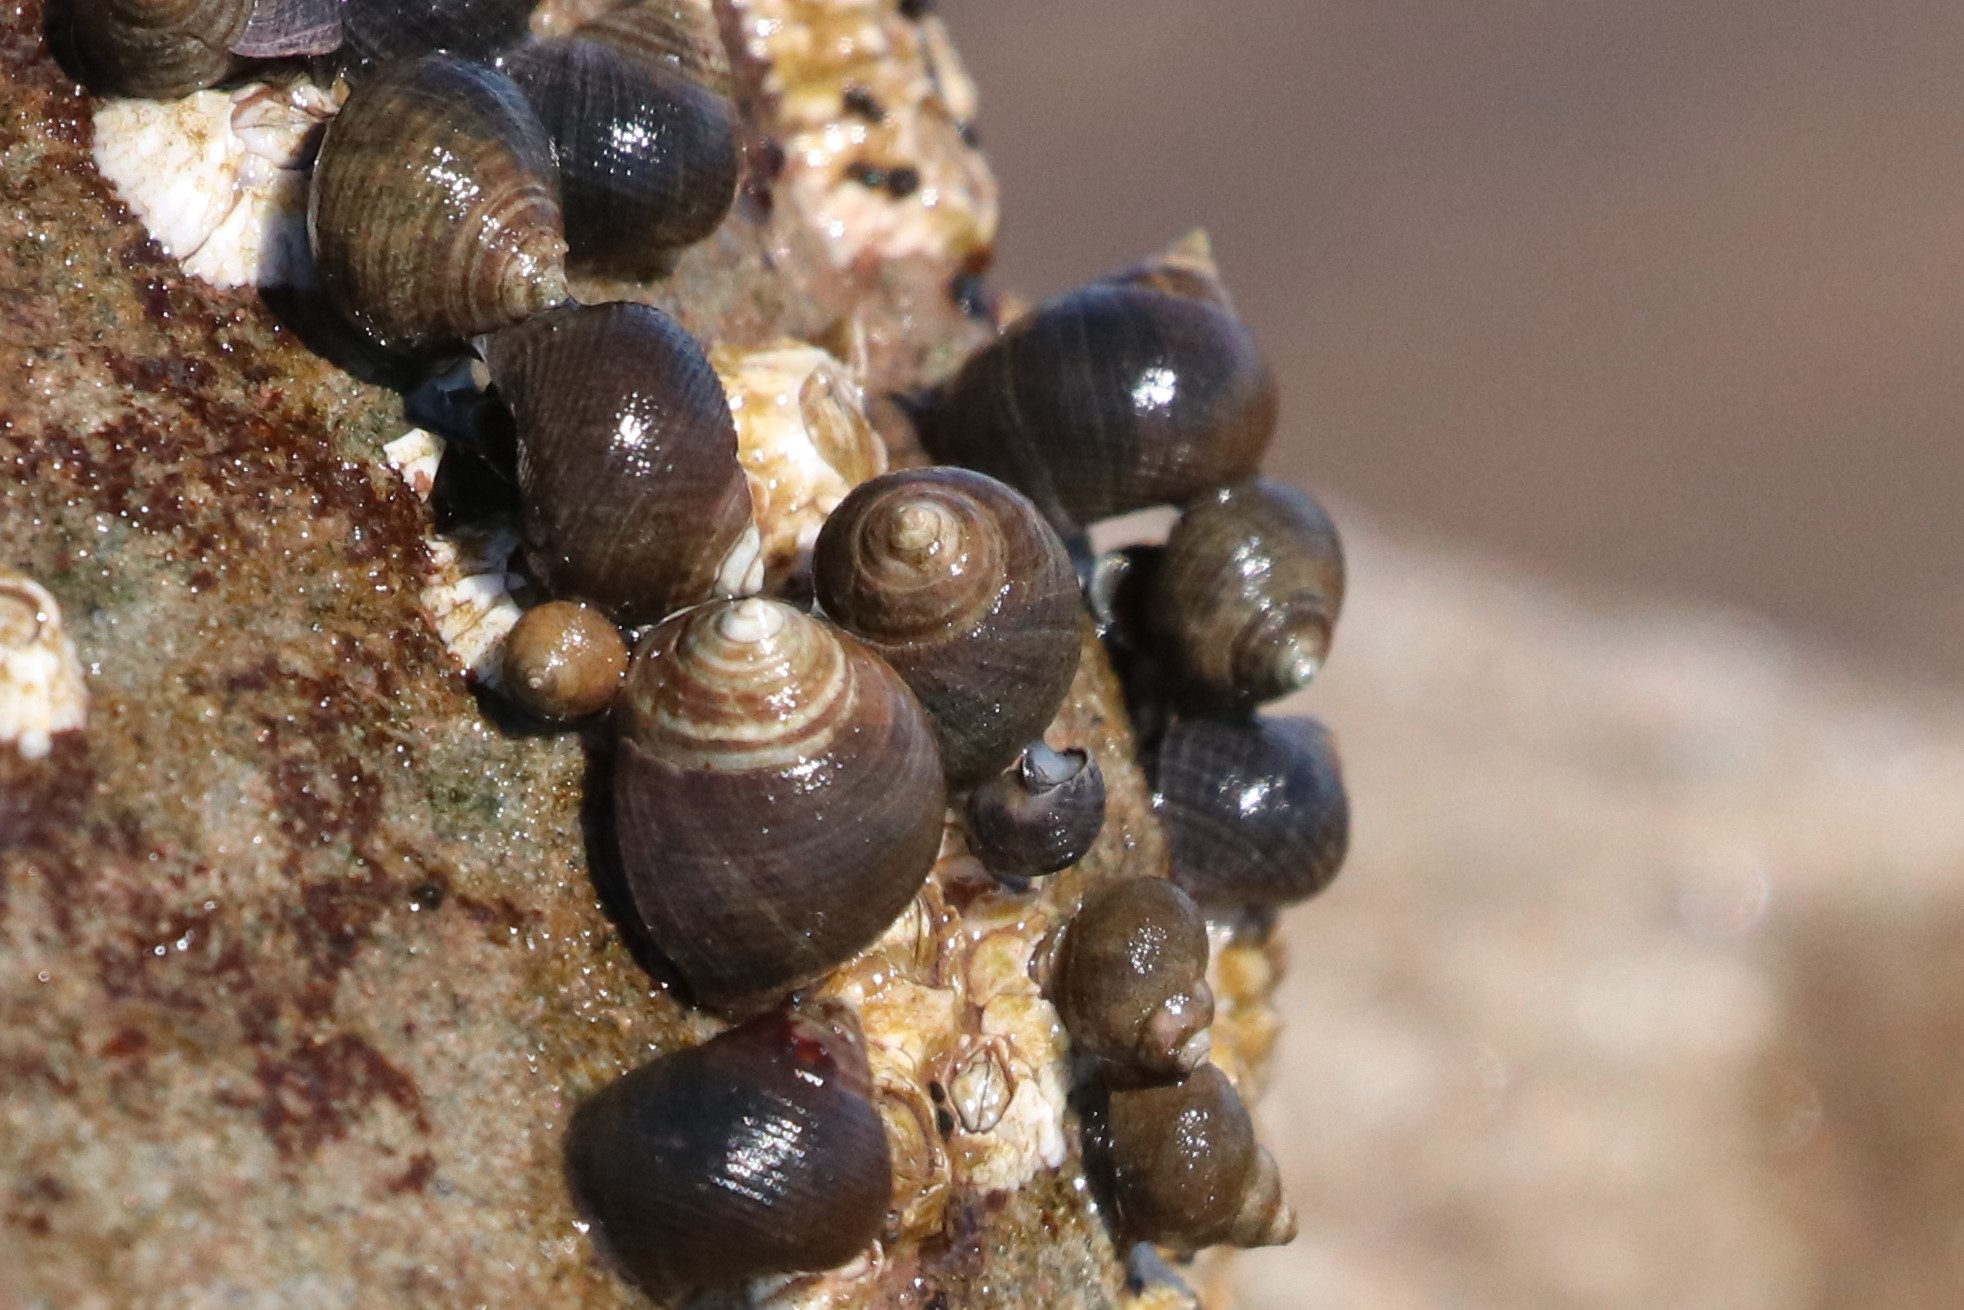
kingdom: Animalia
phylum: Mollusca
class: Gastropoda
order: Littorinimorpha
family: Littorinidae
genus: Littorina
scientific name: Littorina littorea
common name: Common periwinkle
